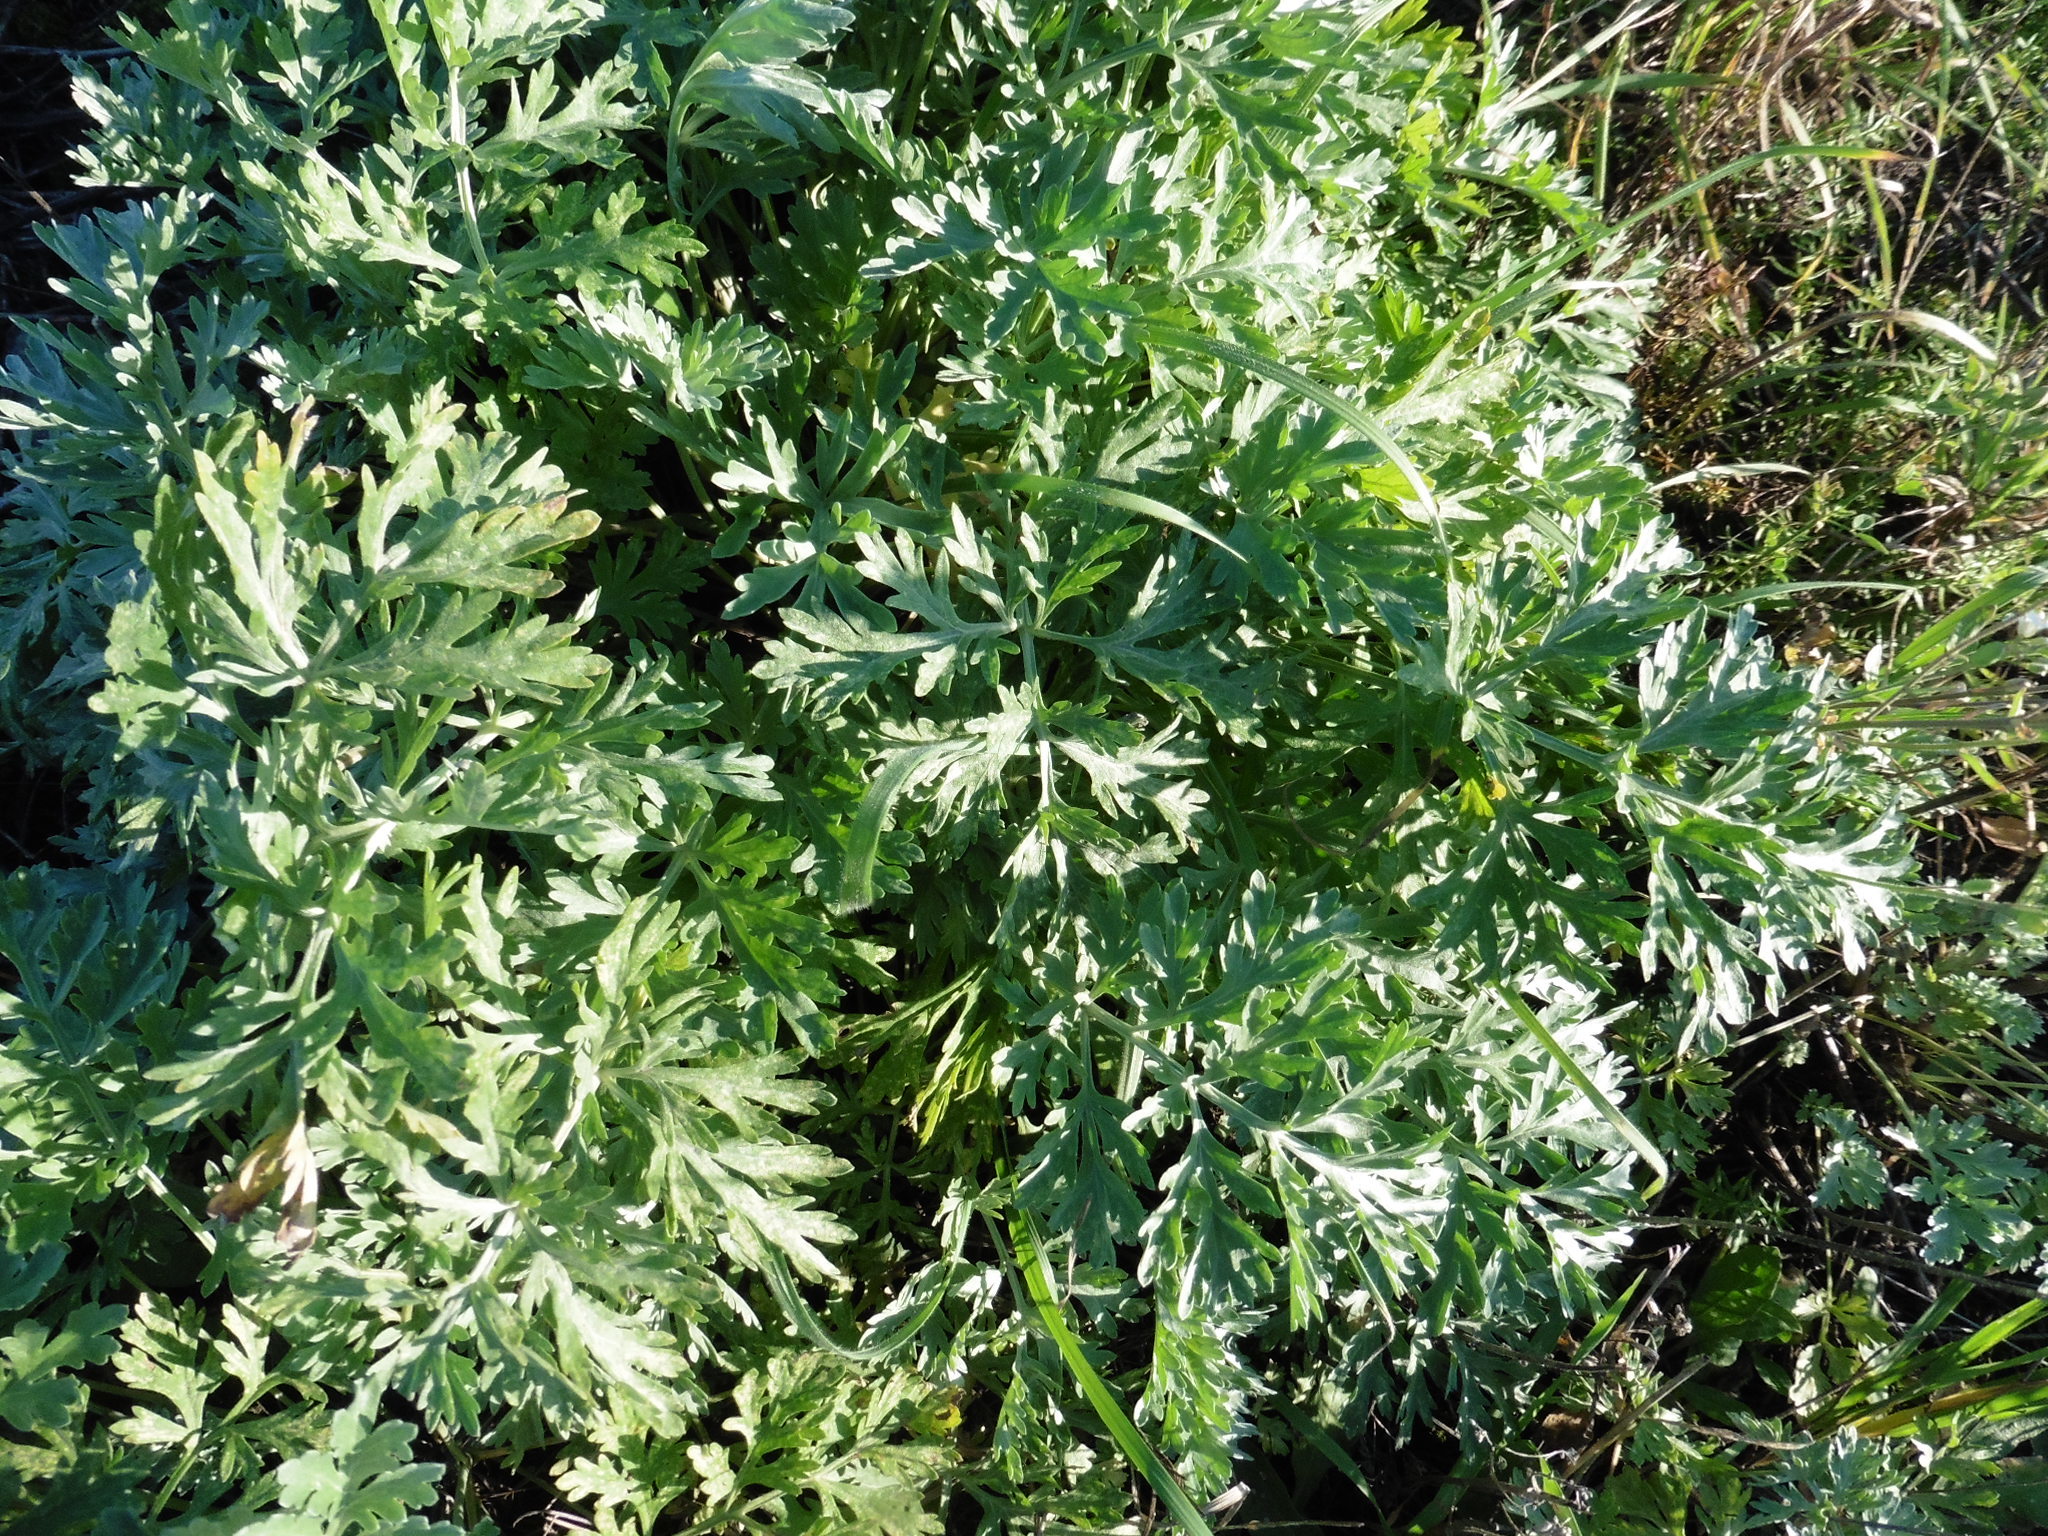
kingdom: Plantae
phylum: Tracheophyta
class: Magnoliopsida
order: Asterales
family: Asteraceae
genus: Artemisia
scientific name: Artemisia absinthium
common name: Wormwood
